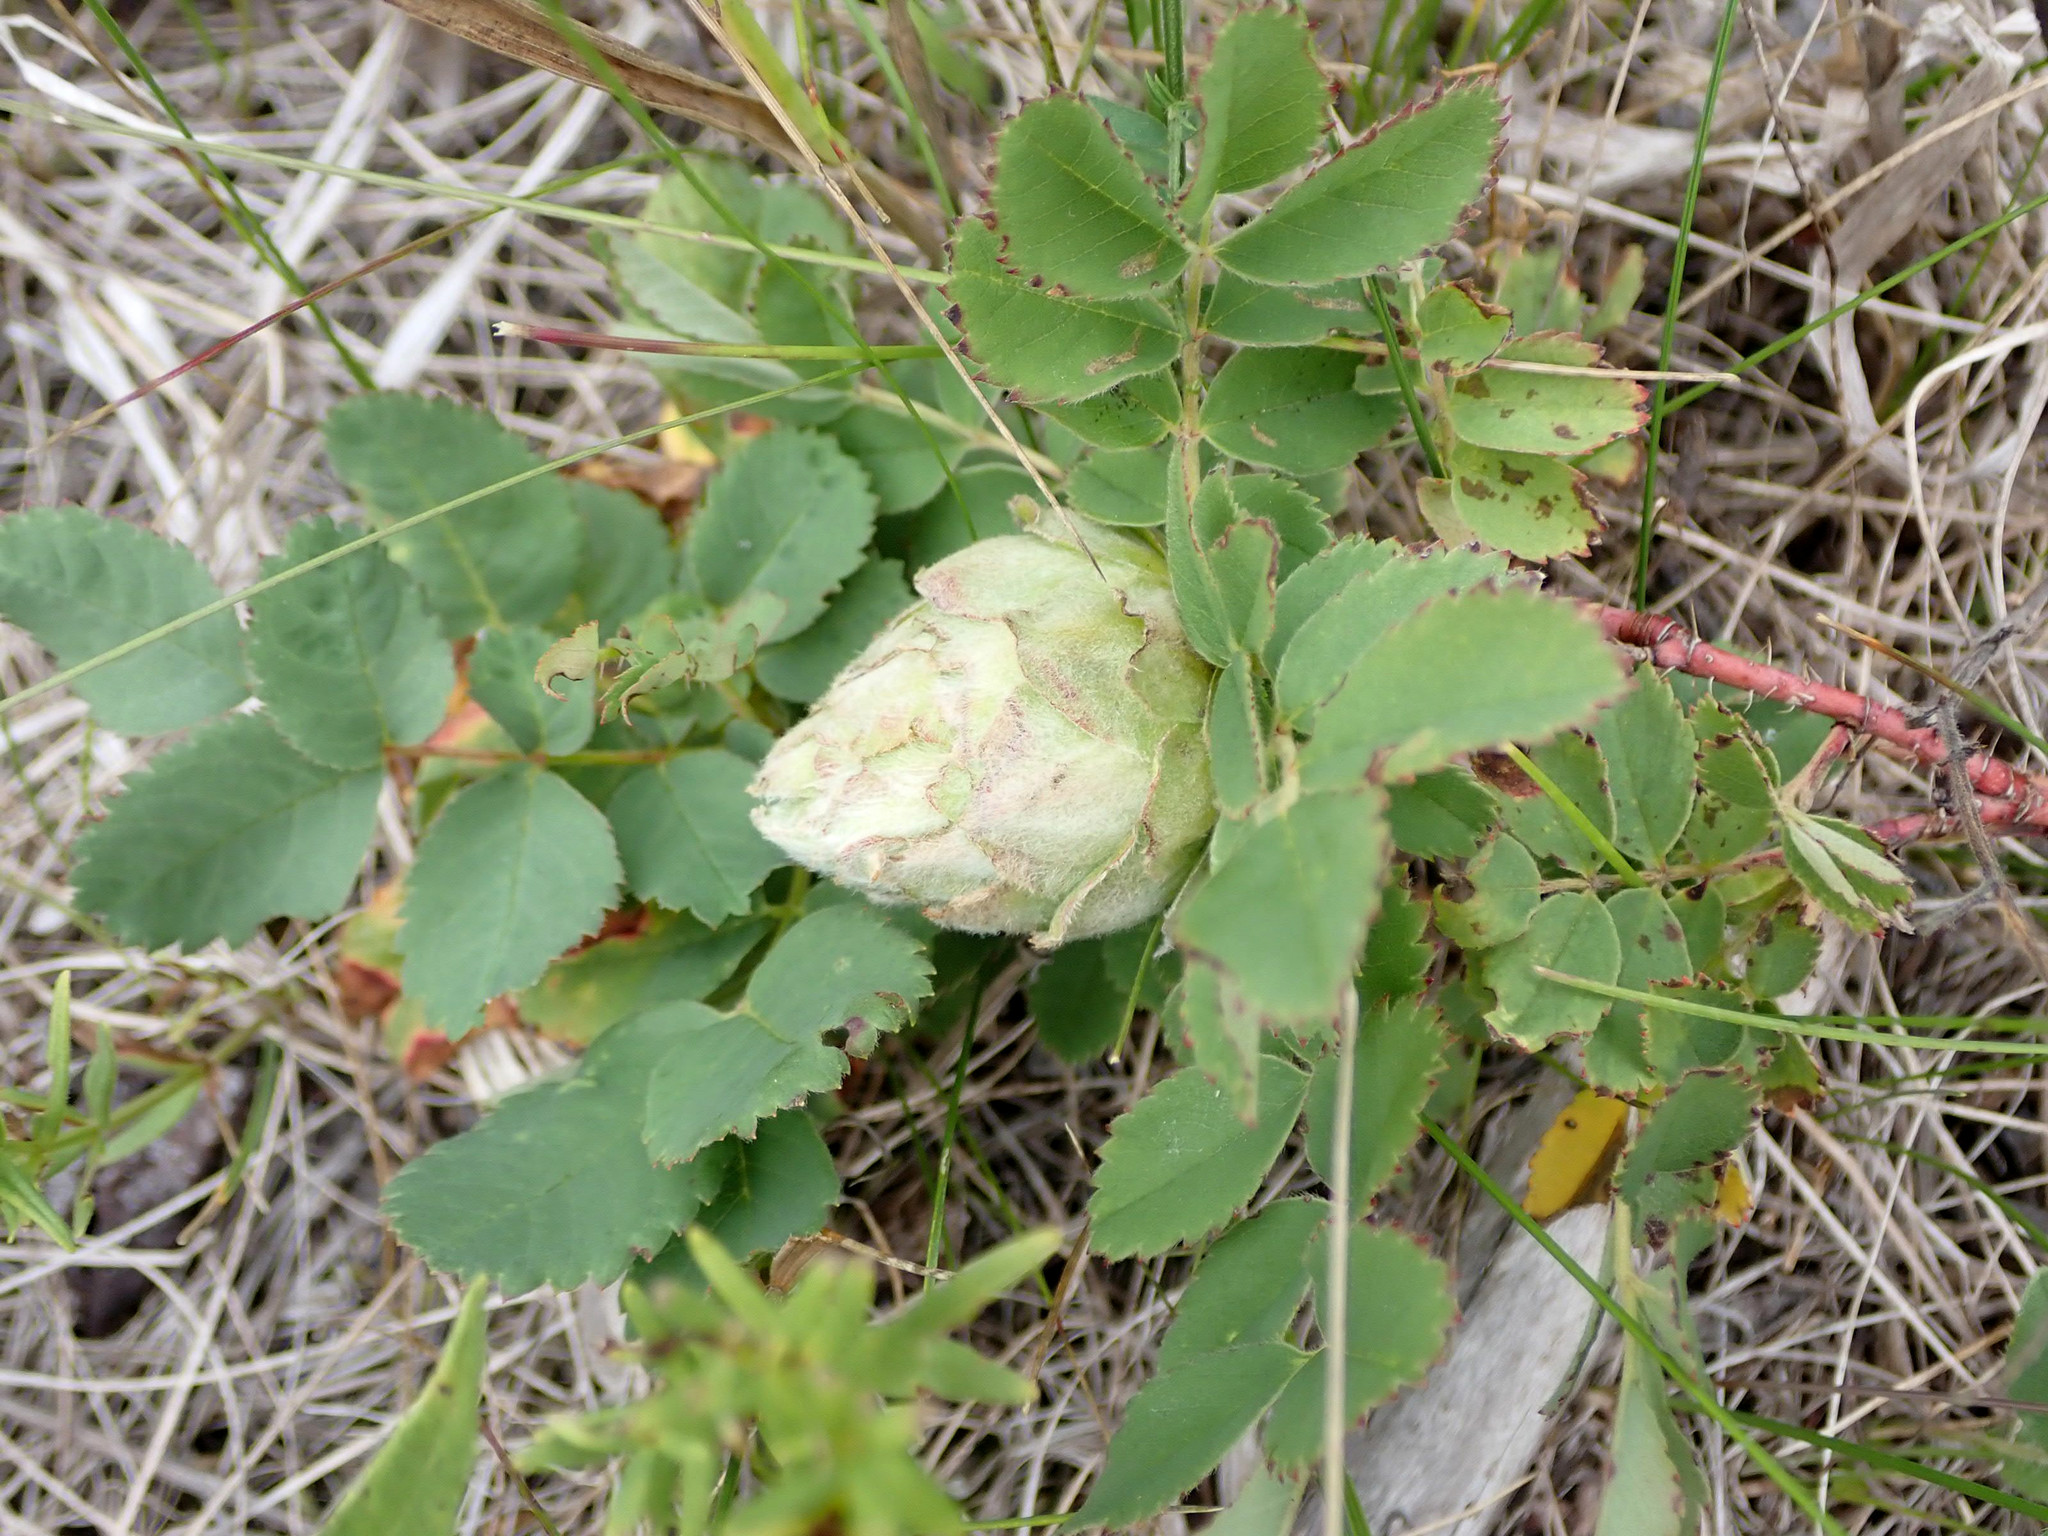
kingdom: Animalia
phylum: Arthropoda
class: Insecta
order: Diptera
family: Cecidomyiidae
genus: Rabdophaga
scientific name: Rabdophaga rosacea
